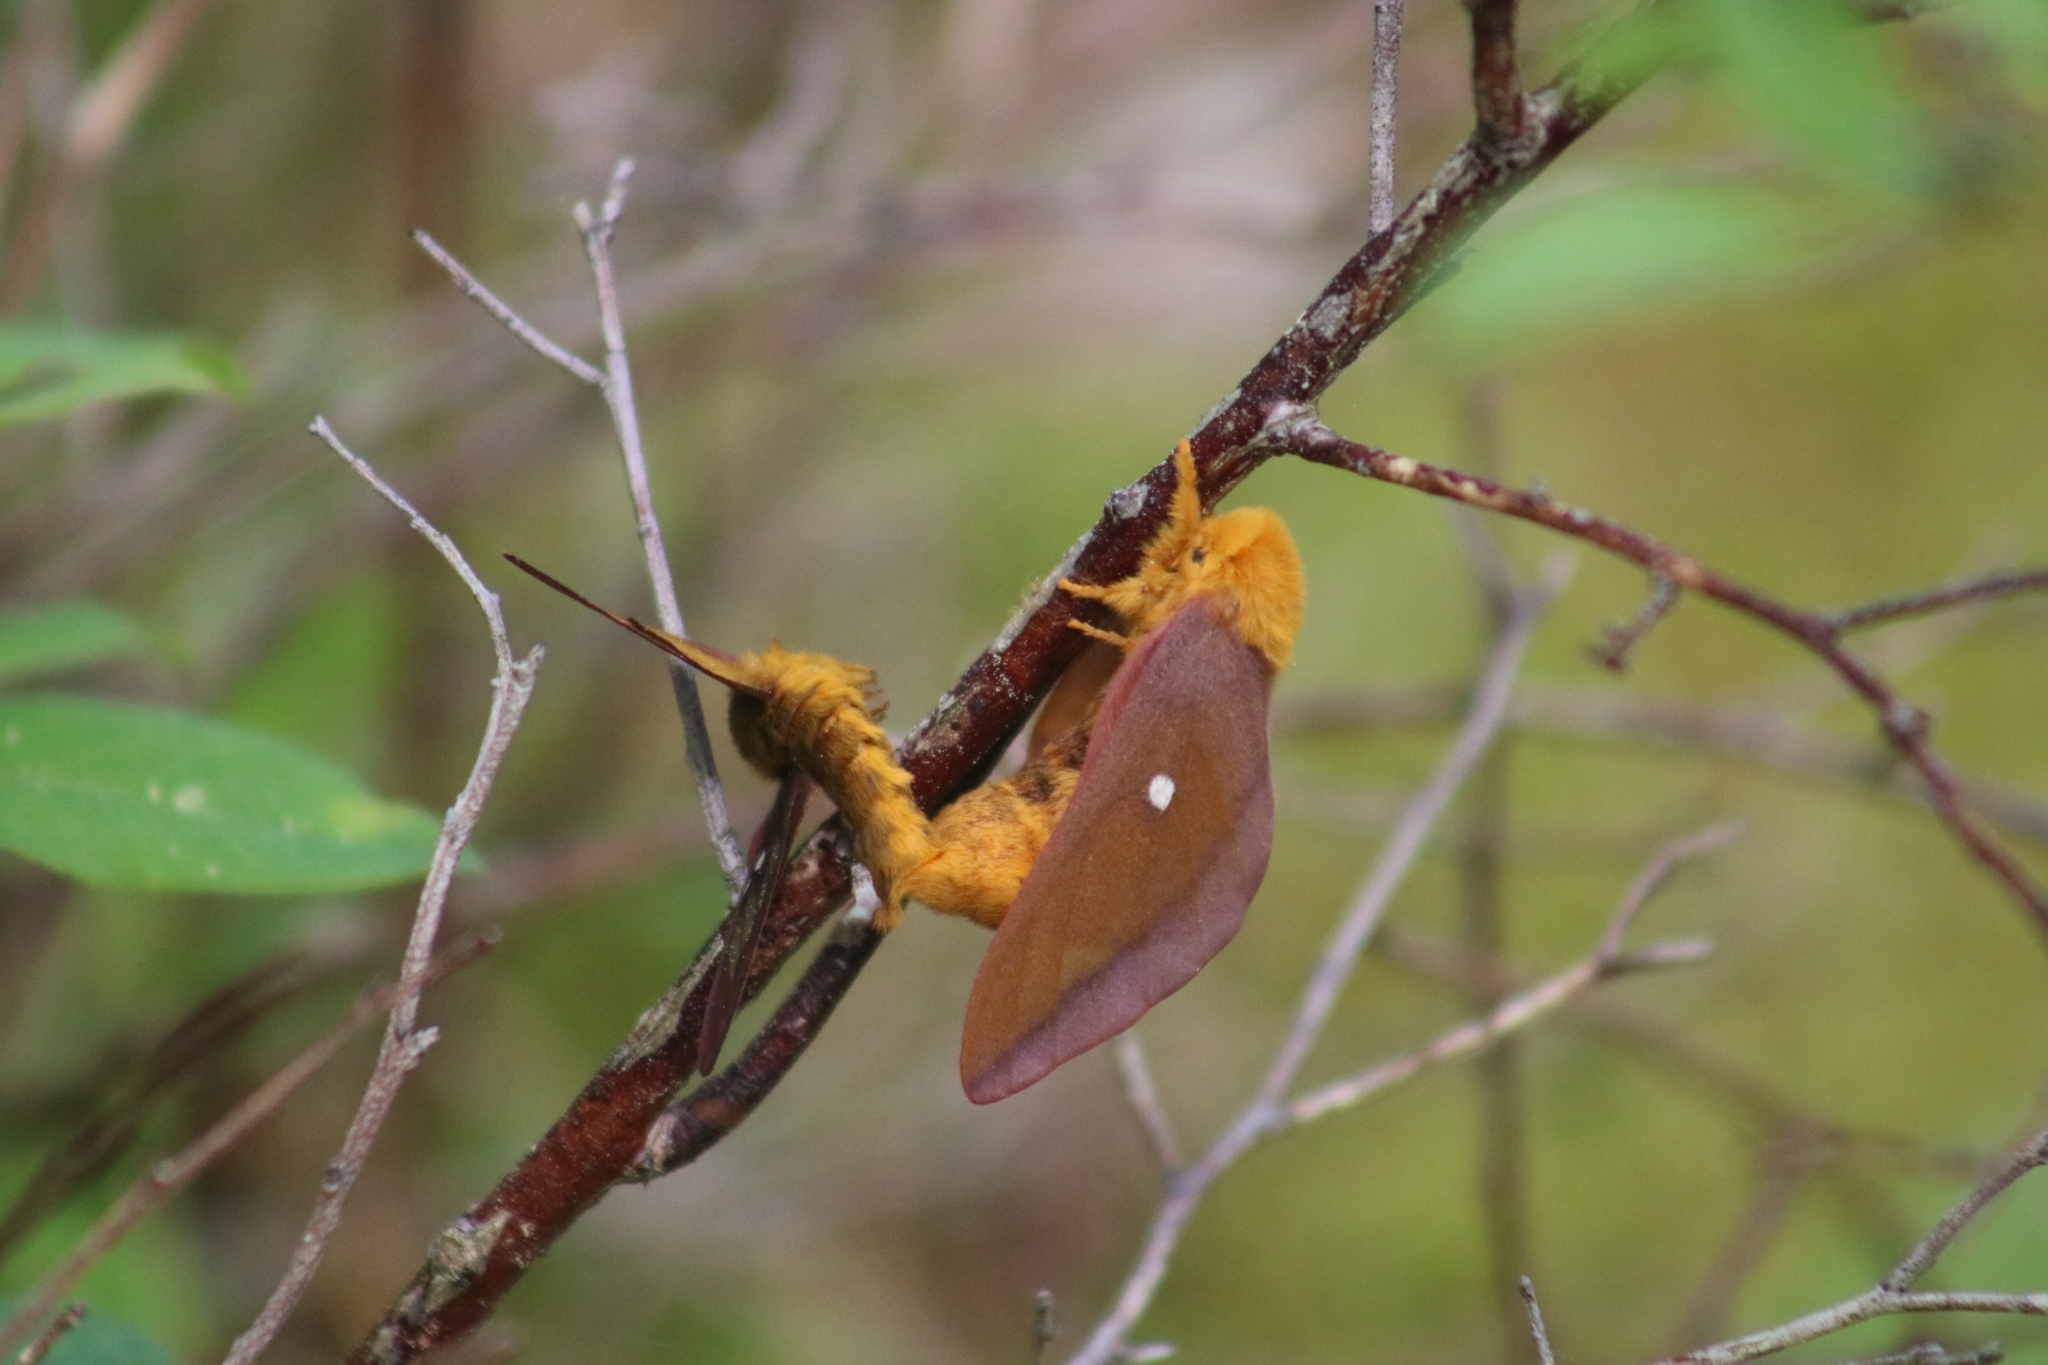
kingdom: Animalia
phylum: Arthropoda
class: Insecta
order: Lepidoptera
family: Saturniidae
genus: Anisota
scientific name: Anisota virginiensis
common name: Pink striped oakworm moth
